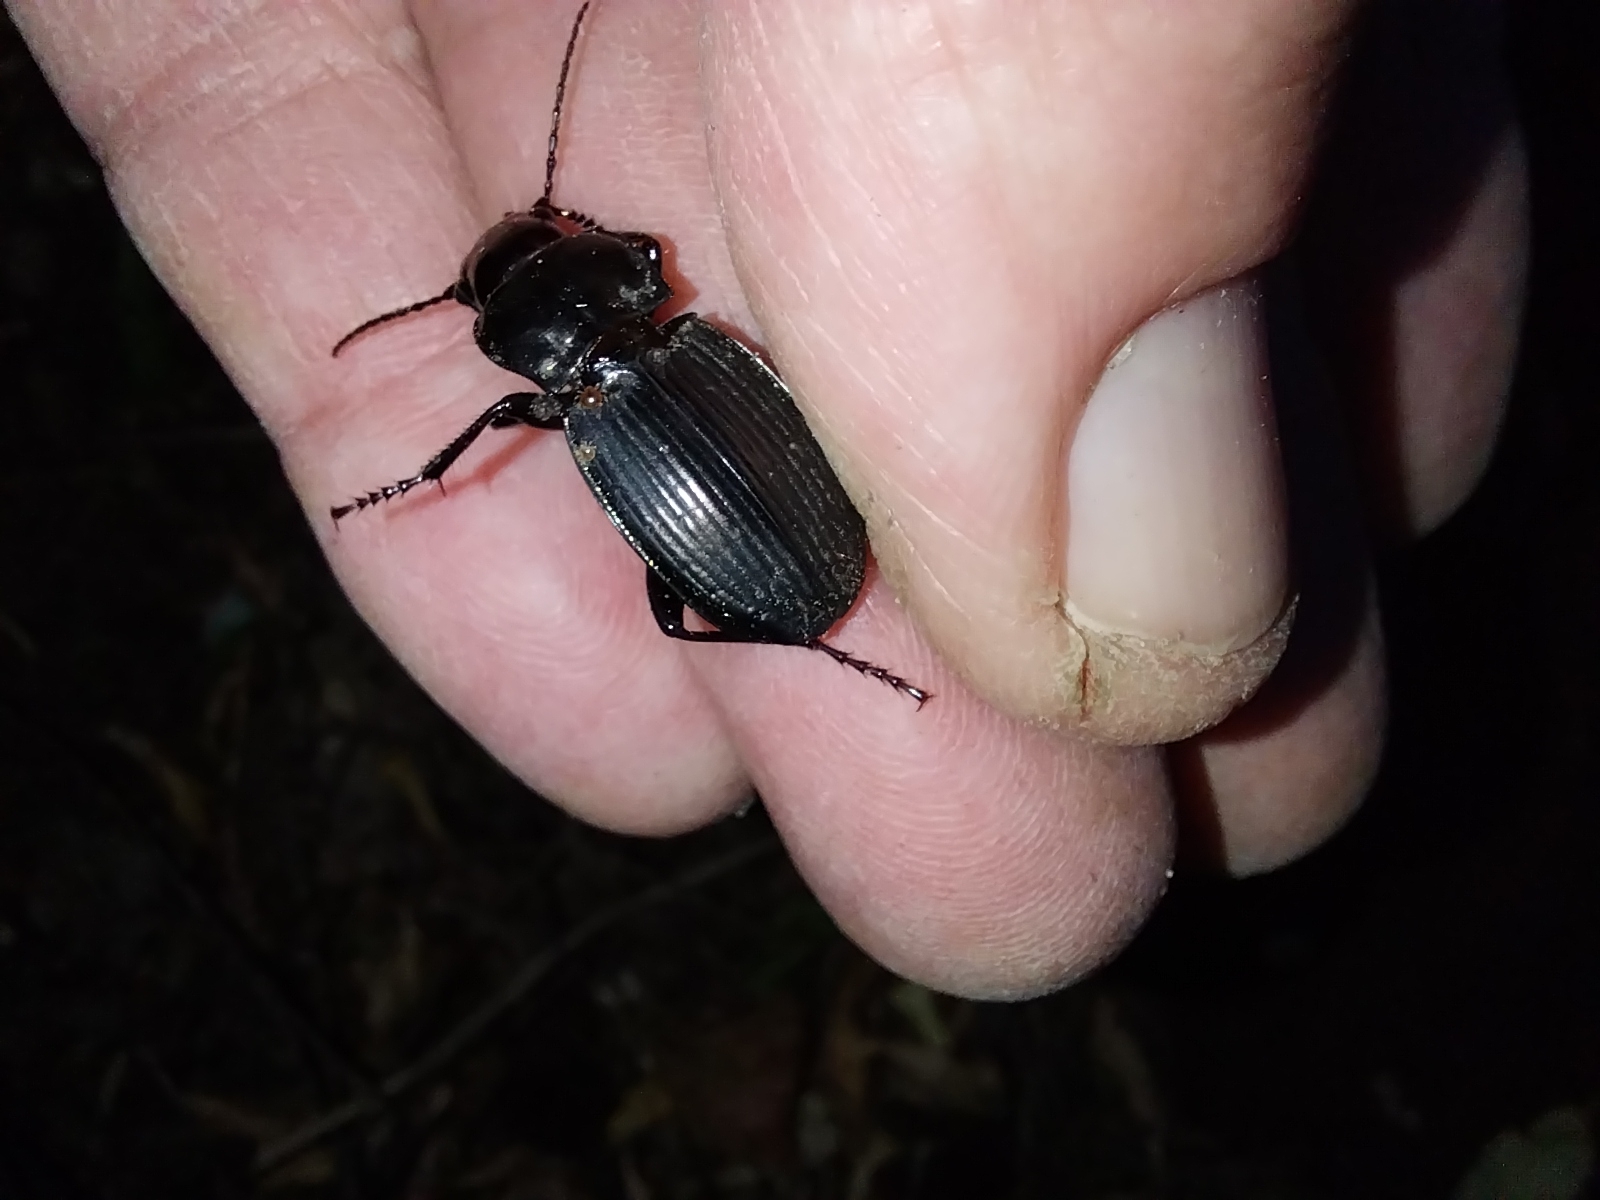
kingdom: Animalia
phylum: Arthropoda
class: Insecta
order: Coleoptera
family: Carabidae
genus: Megadromus
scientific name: Megadromus guerinii
